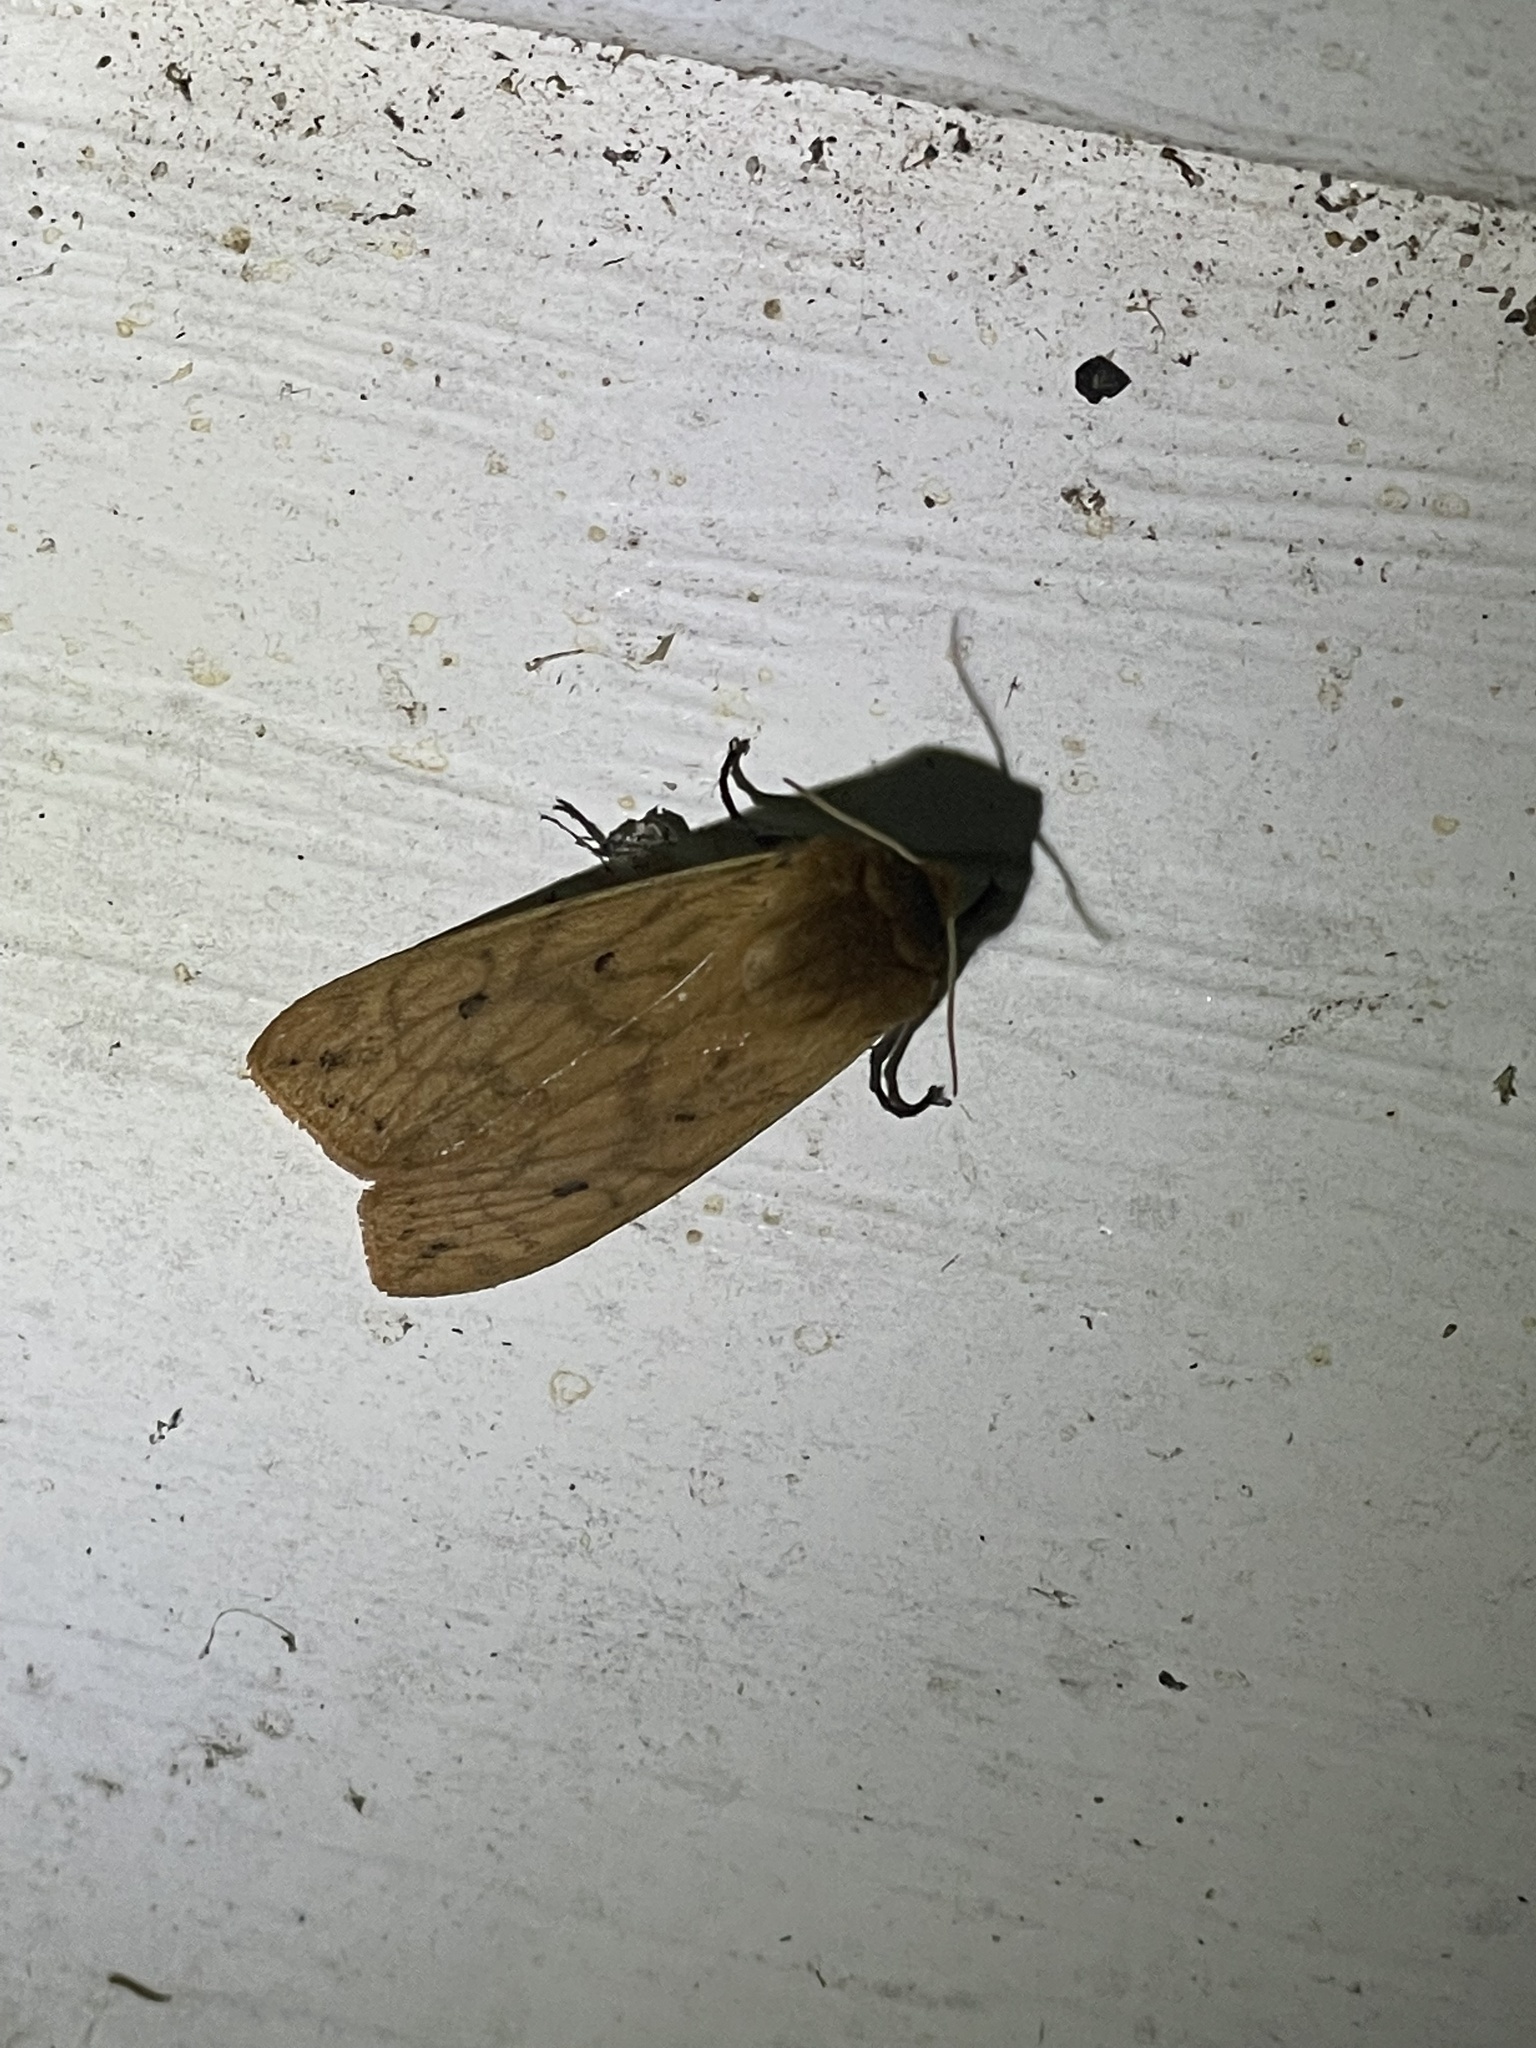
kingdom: Animalia
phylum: Arthropoda
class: Insecta
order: Lepidoptera
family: Erebidae
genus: Pyrrharctia
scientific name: Pyrrharctia isabella
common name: Isabella tiger moth
